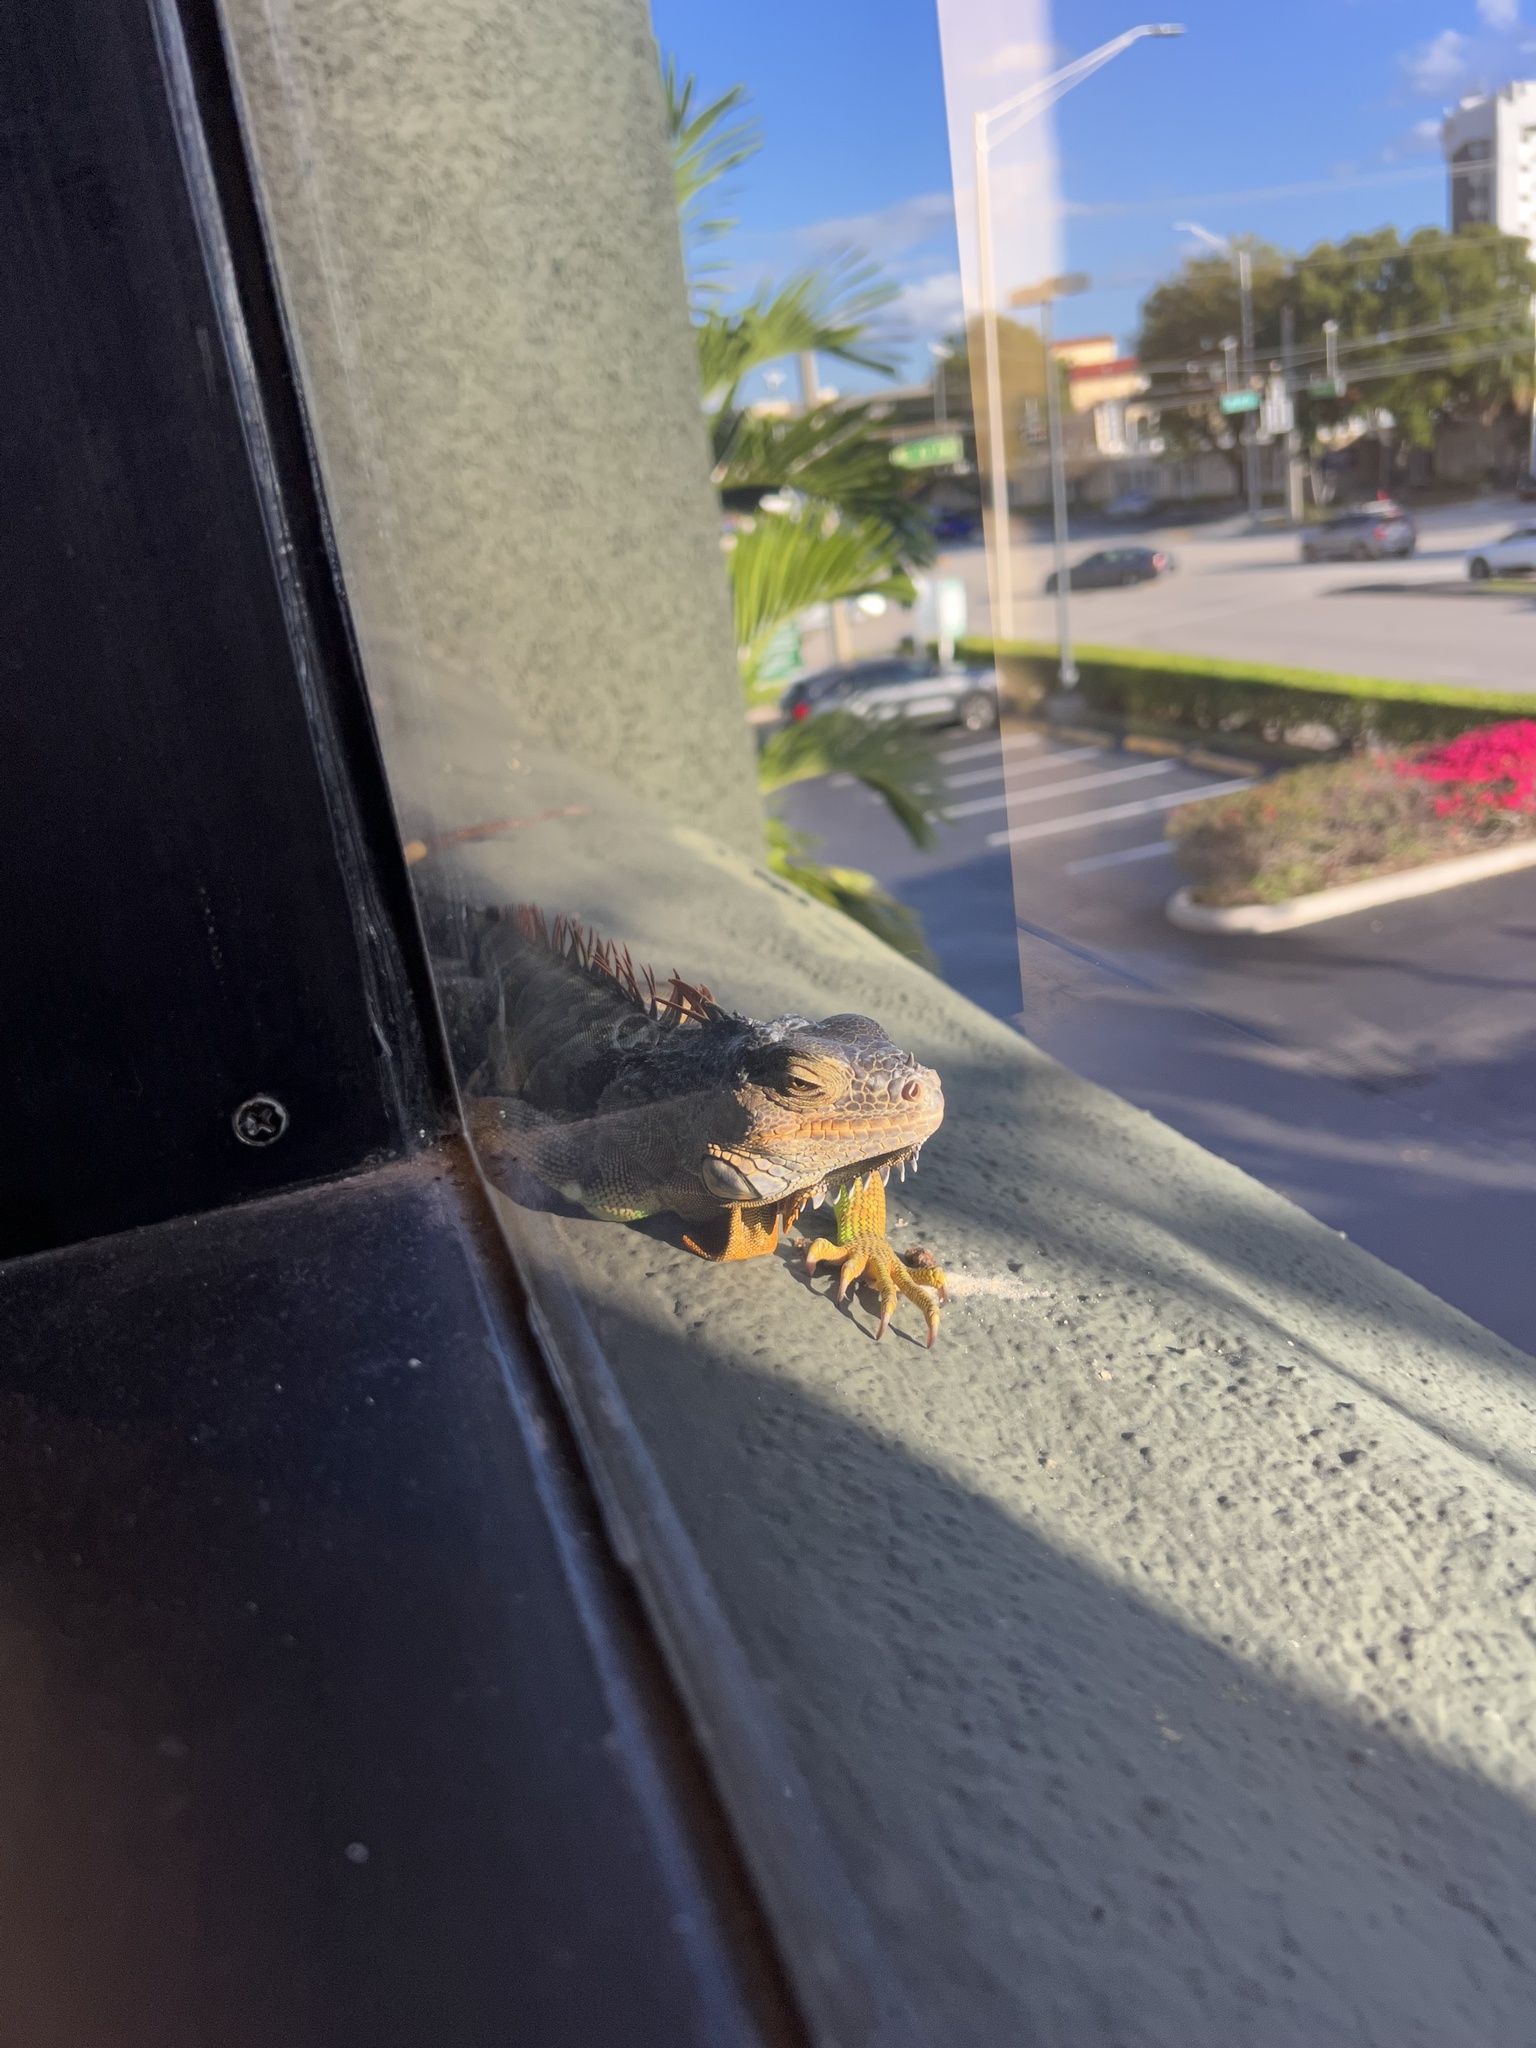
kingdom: Animalia
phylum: Chordata
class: Squamata
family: Iguanidae
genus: Iguana
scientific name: Iguana iguana
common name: Green iguana
